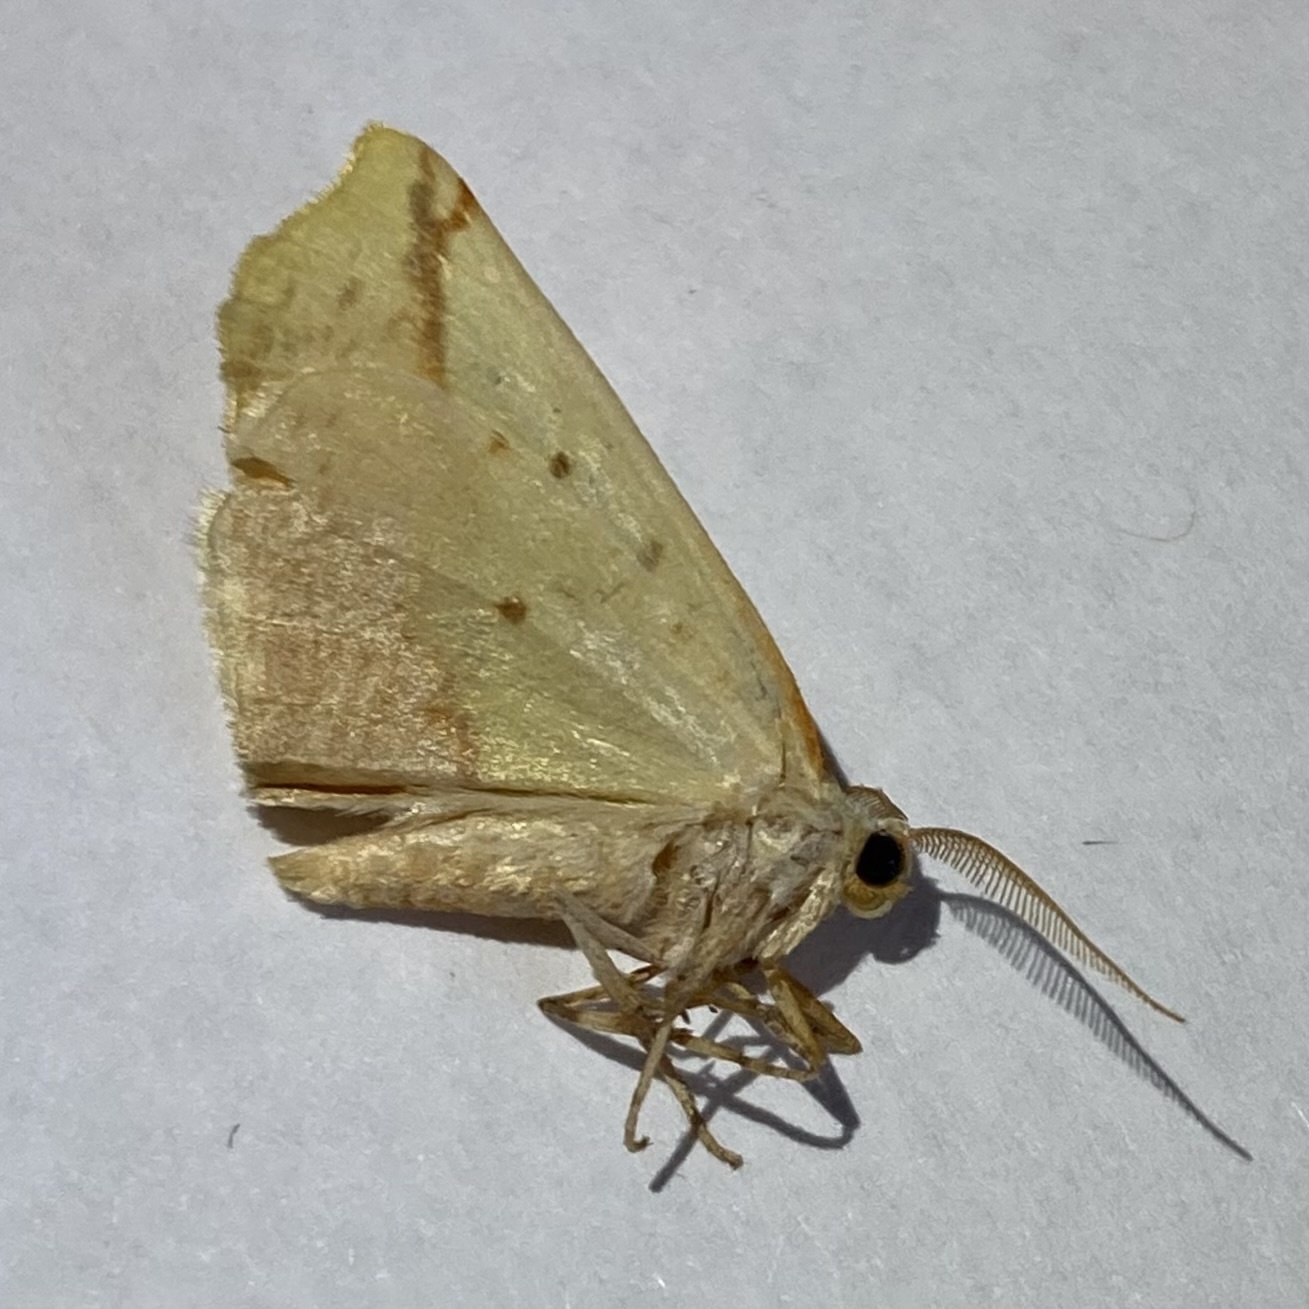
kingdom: Animalia
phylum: Arthropoda
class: Insecta
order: Lepidoptera
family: Geometridae
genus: Sicya
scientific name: Sicya macularia
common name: Sharp-lined yellow
